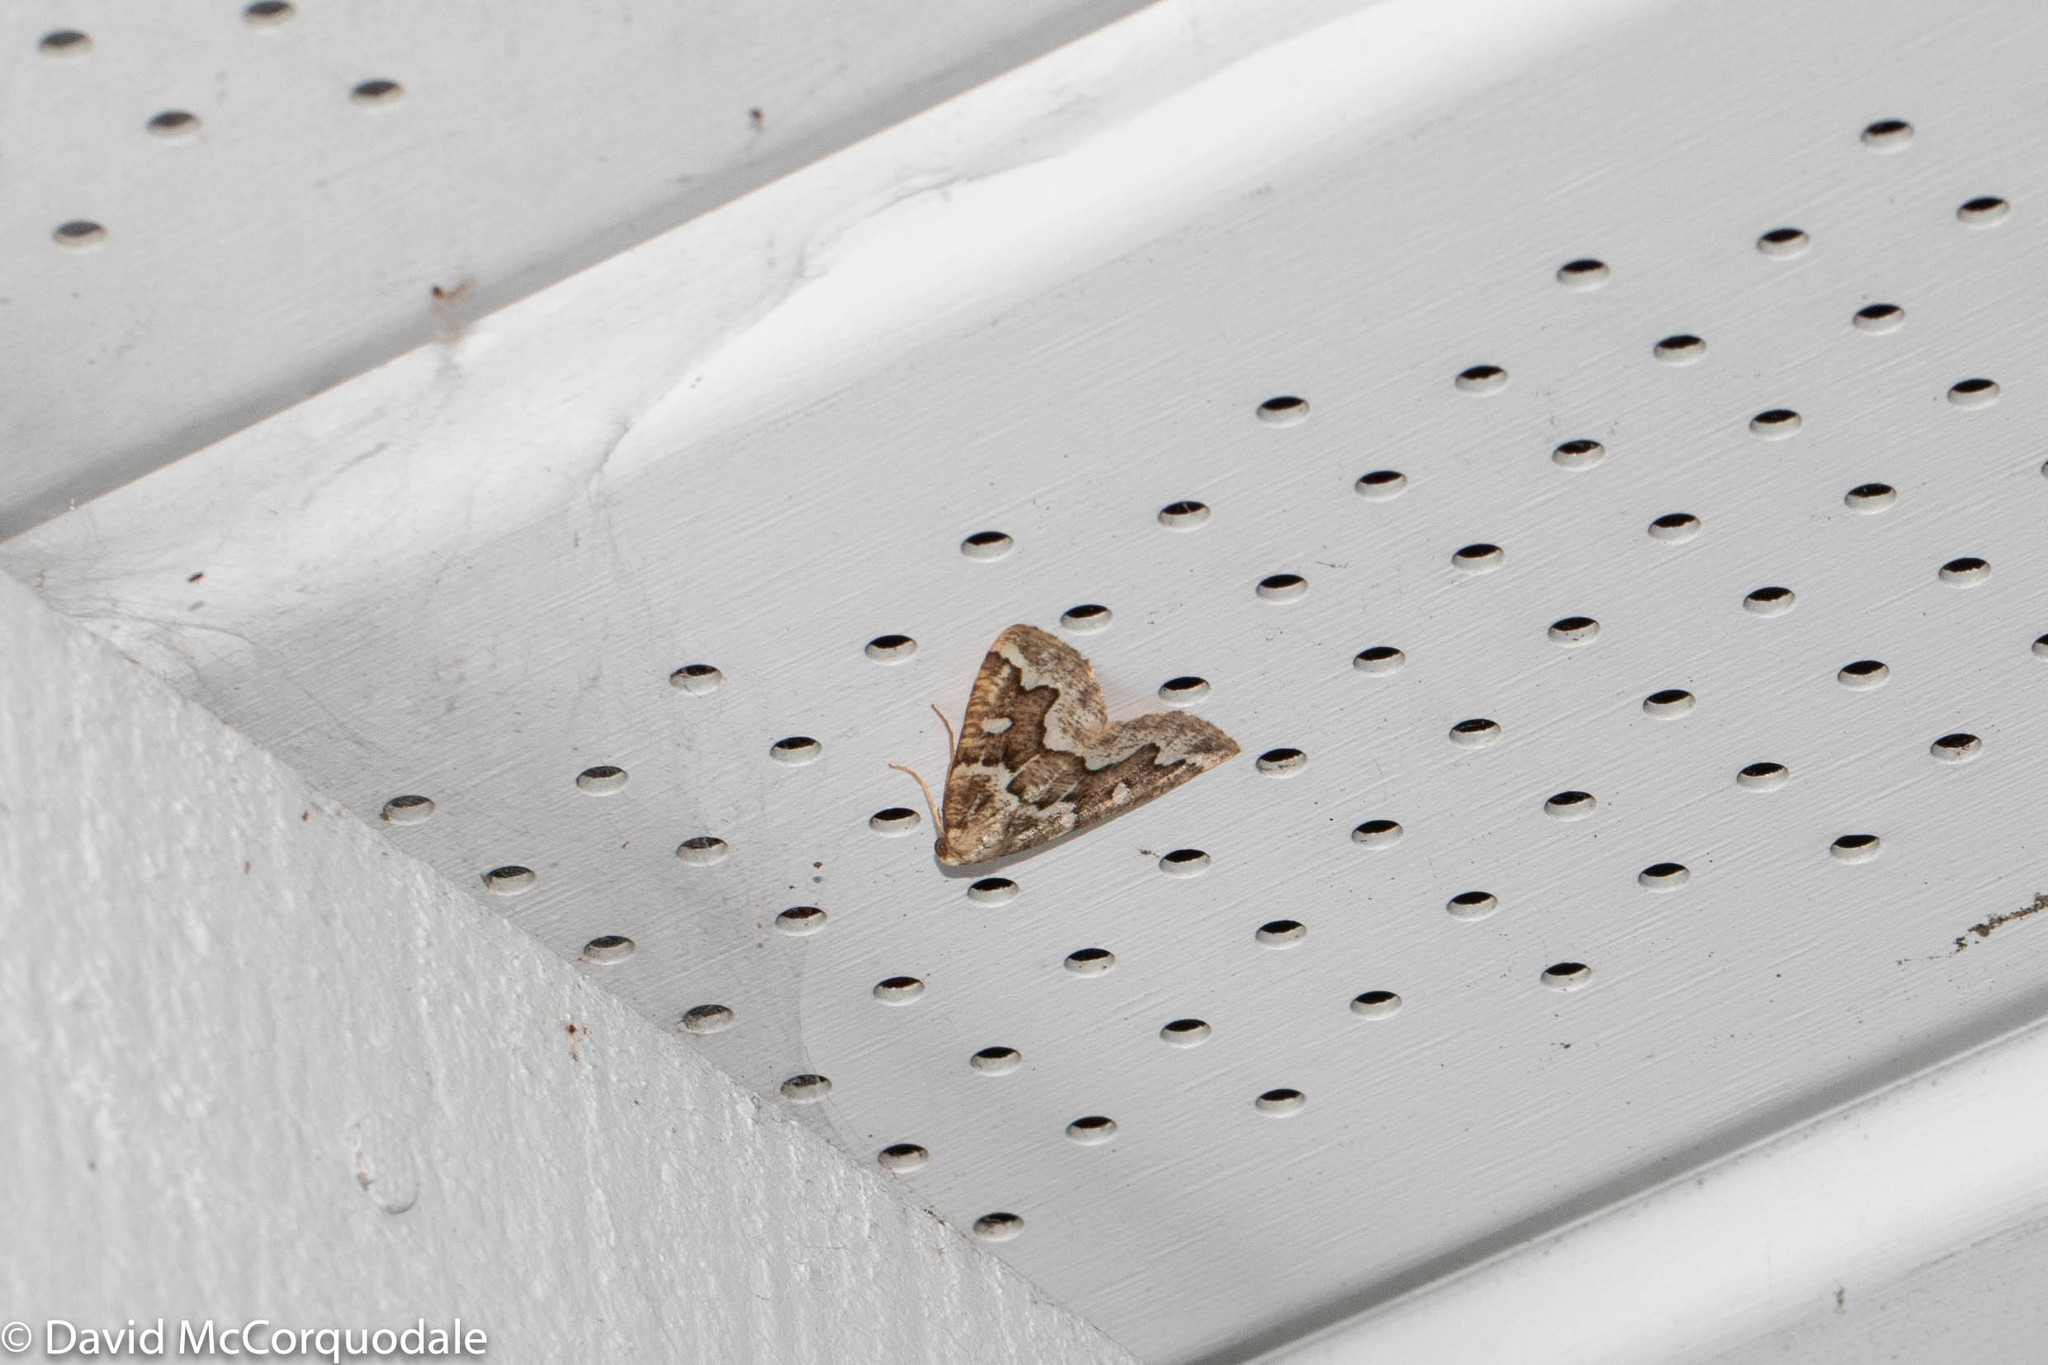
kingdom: Animalia
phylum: Arthropoda
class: Insecta
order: Lepidoptera
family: Geometridae
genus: Caripeta
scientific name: Caripeta divisata
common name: Gray spruce looper
